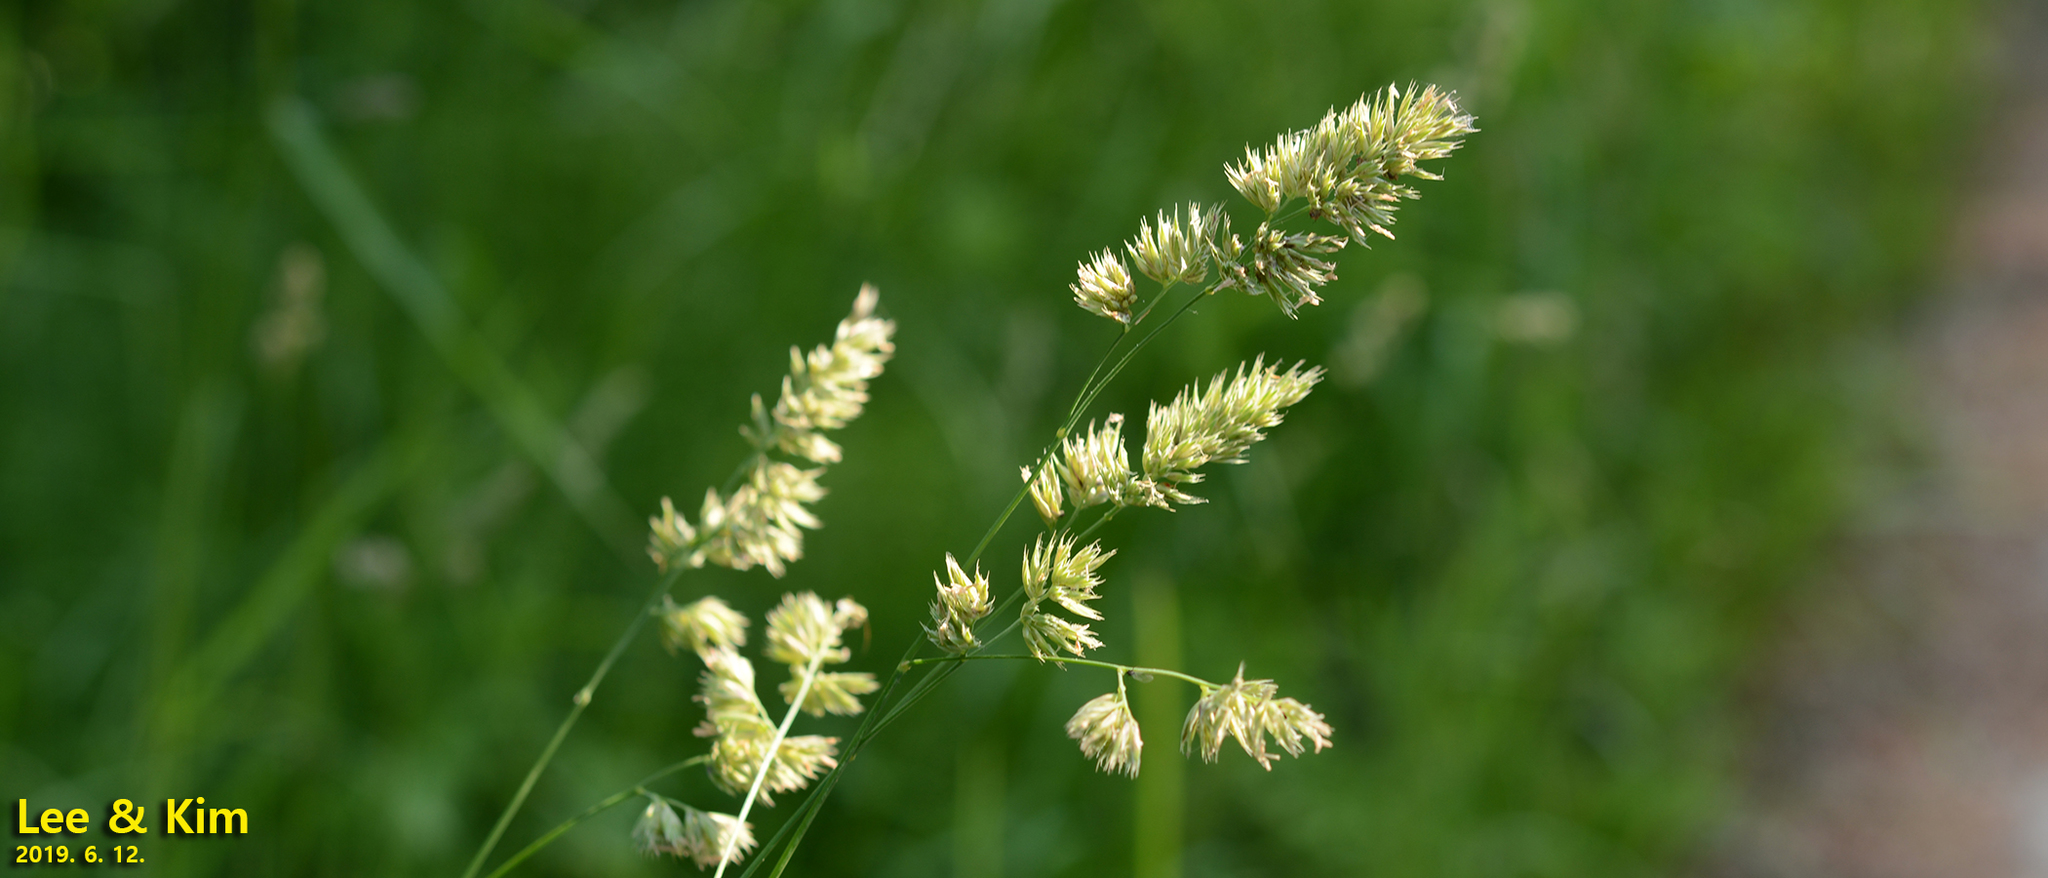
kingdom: Plantae
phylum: Tracheophyta
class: Liliopsida
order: Poales
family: Poaceae
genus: Dactylis
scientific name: Dactylis glomerata
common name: Orchardgrass
